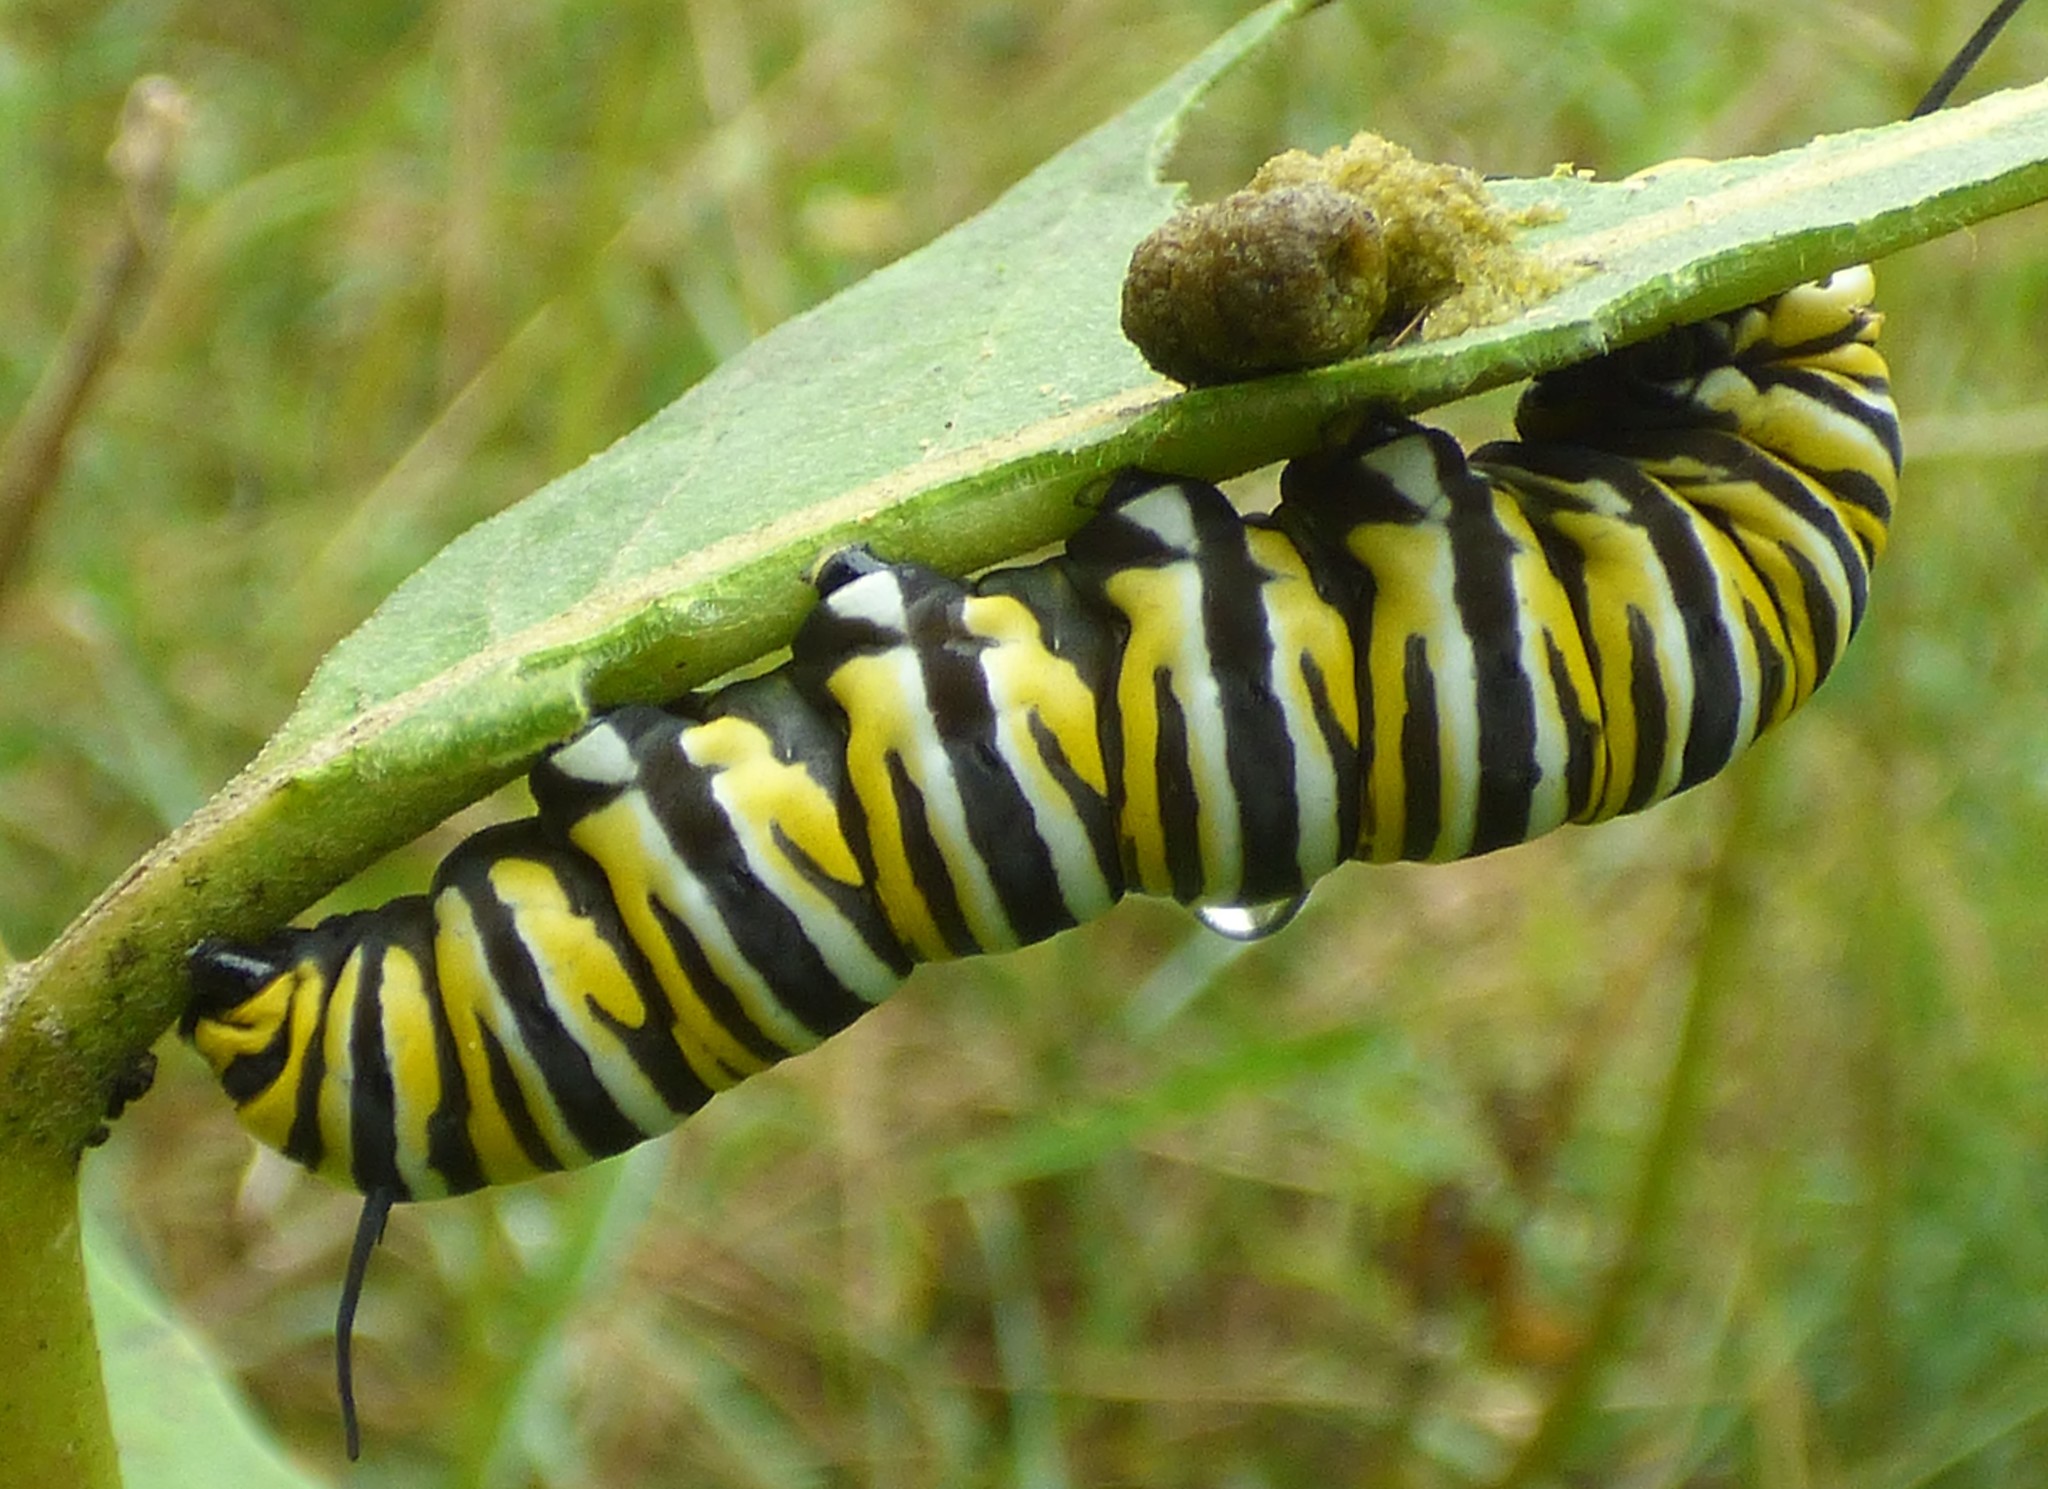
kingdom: Animalia
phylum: Arthropoda
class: Insecta
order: Lepidoptera
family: Nymphalidae
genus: Danaus
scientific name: Danaus plexippus
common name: Monarch
